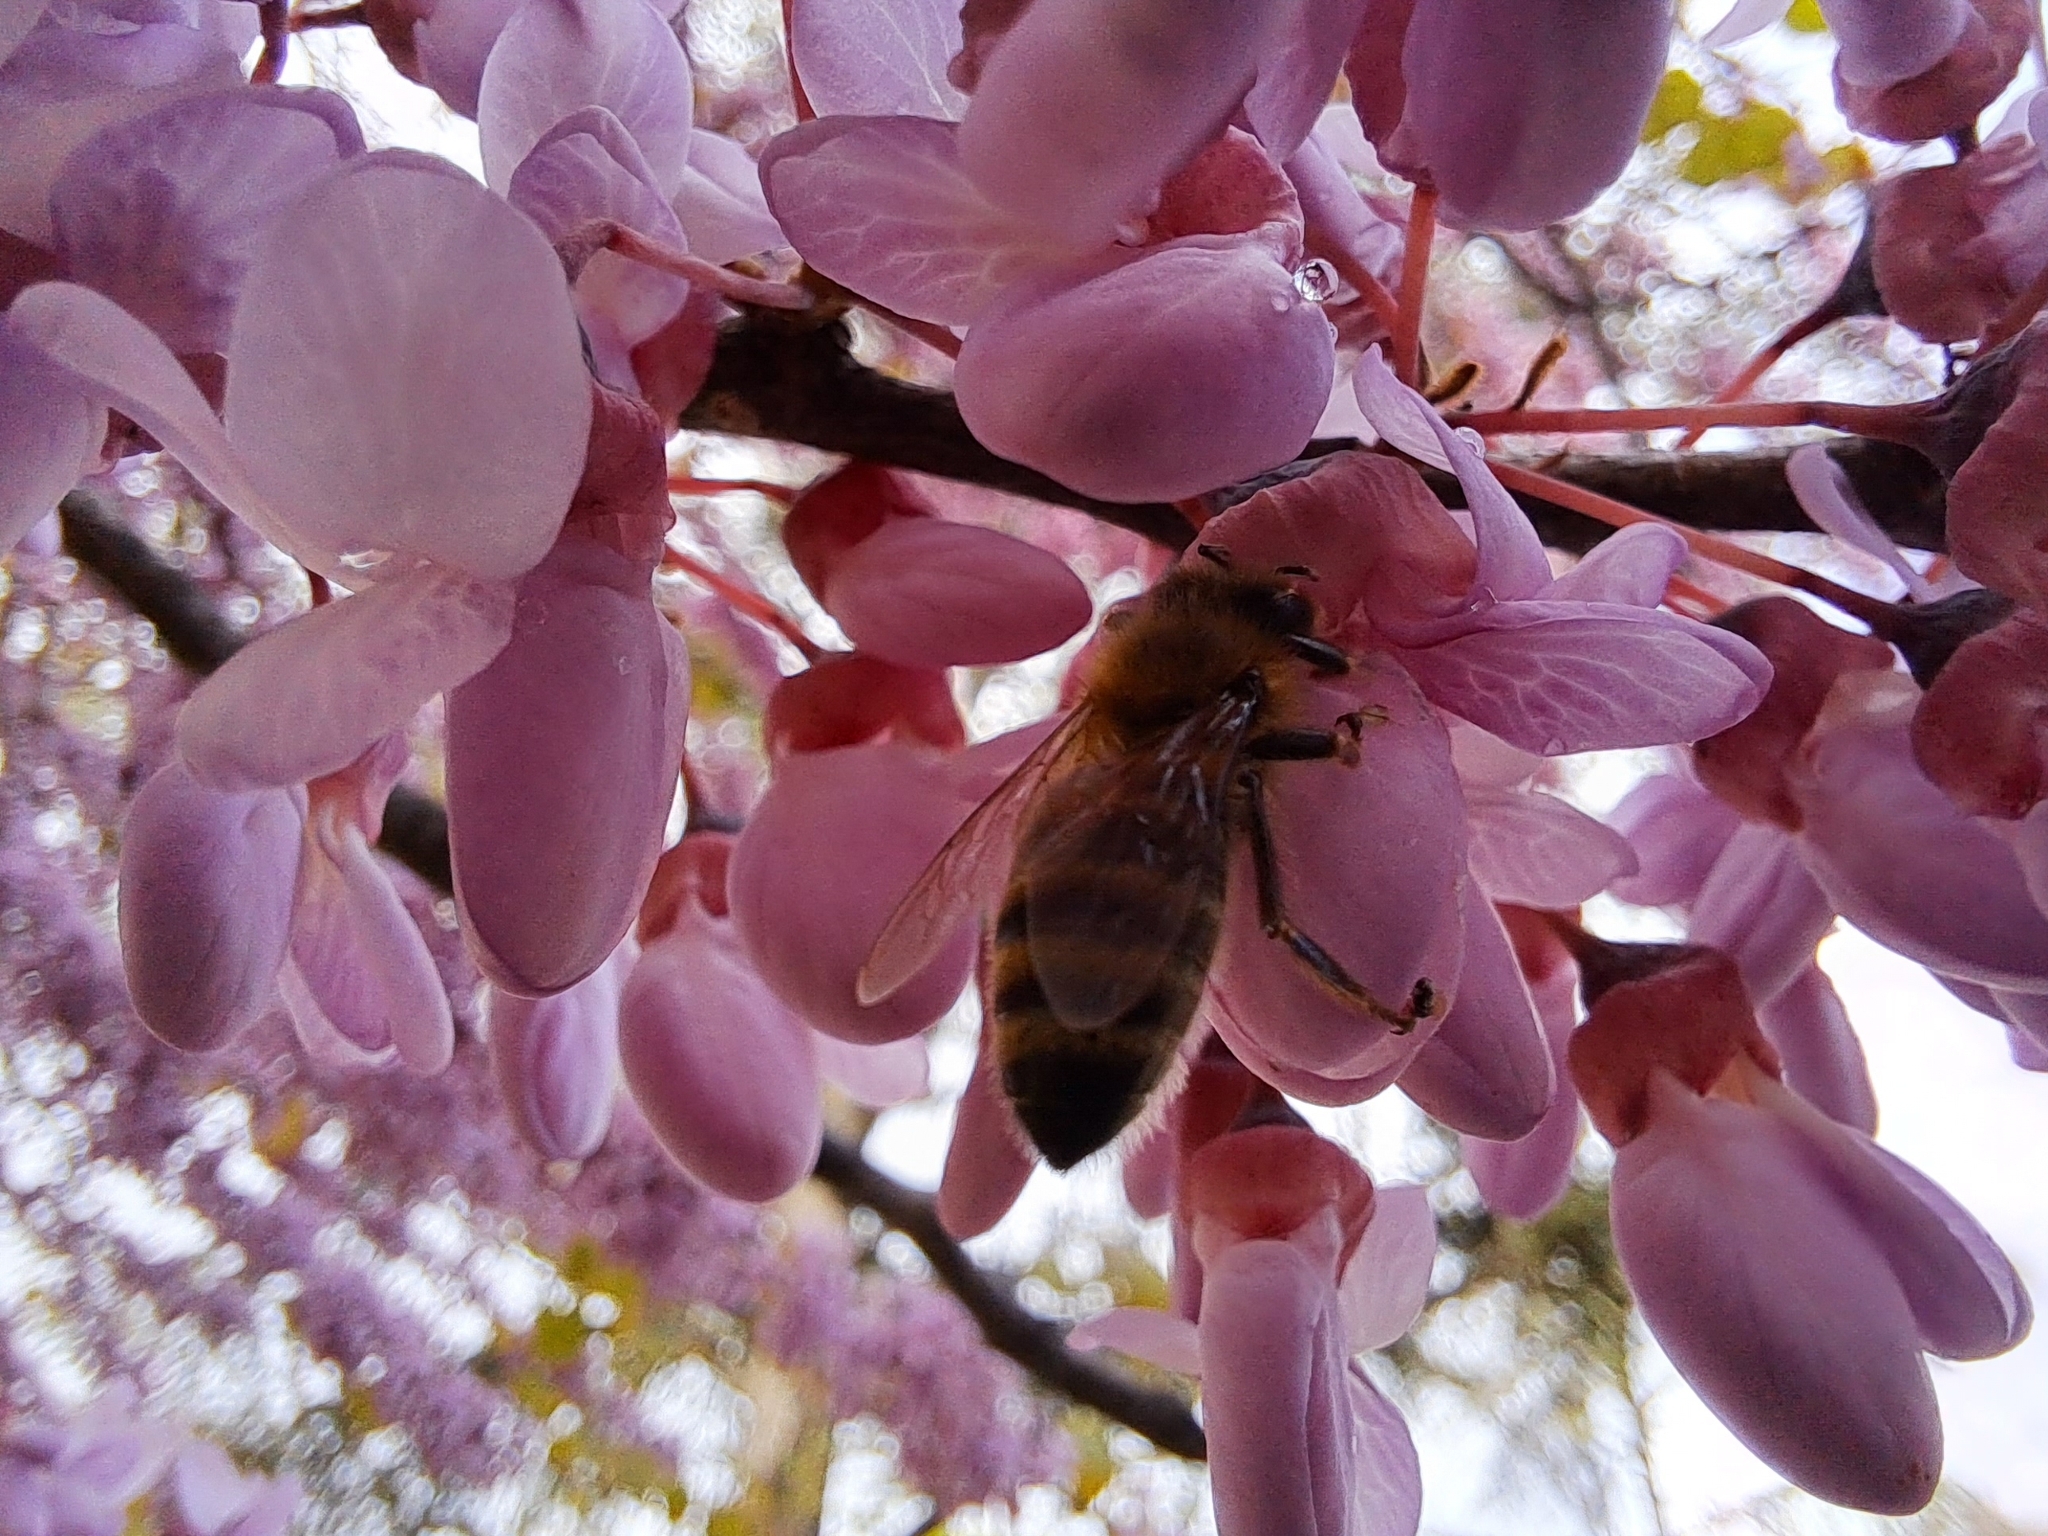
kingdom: Animalia
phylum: Arthropoda
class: Insecta
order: Hymenoptera
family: Apidae
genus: Apis
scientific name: Apis mellifera
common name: Honey bee
